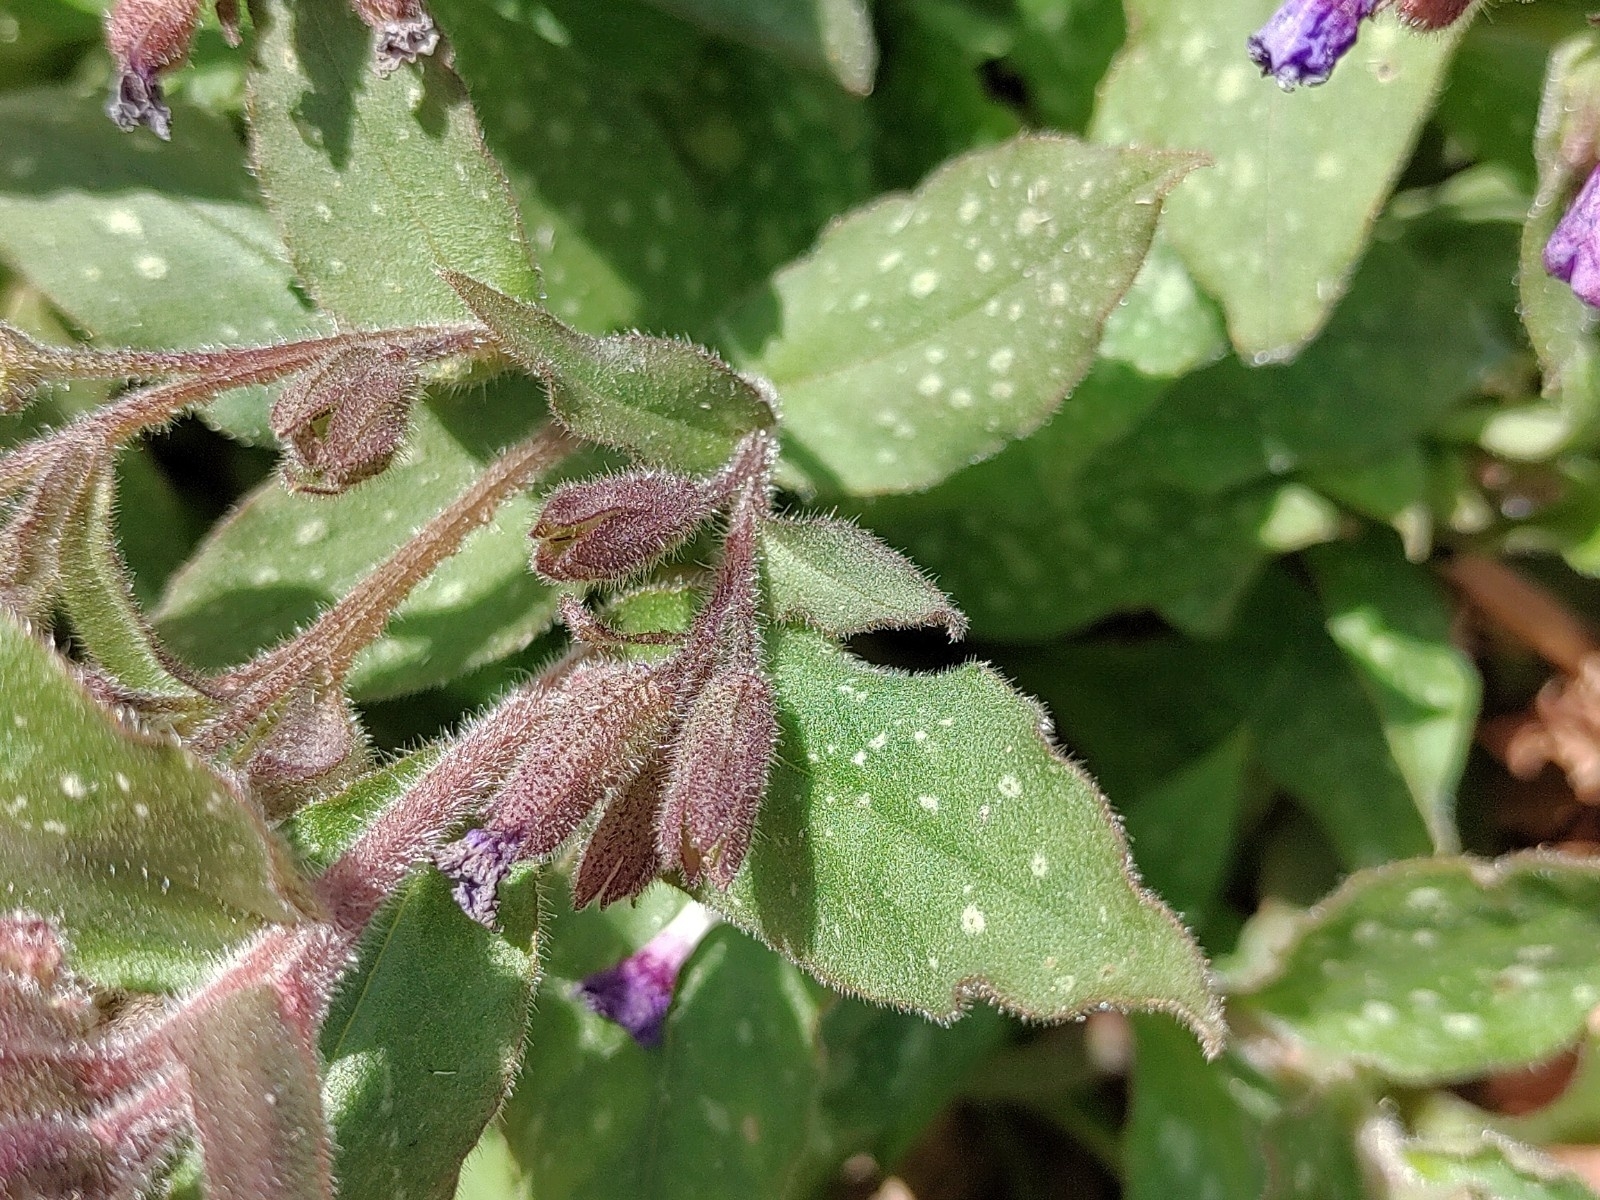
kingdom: Plantae
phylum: Tracheophyta
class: Magnoliopsida
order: Boraginales
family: Boraginaceae
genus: Pulmonaria
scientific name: Pulmonaria officinalis
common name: Lungwort
